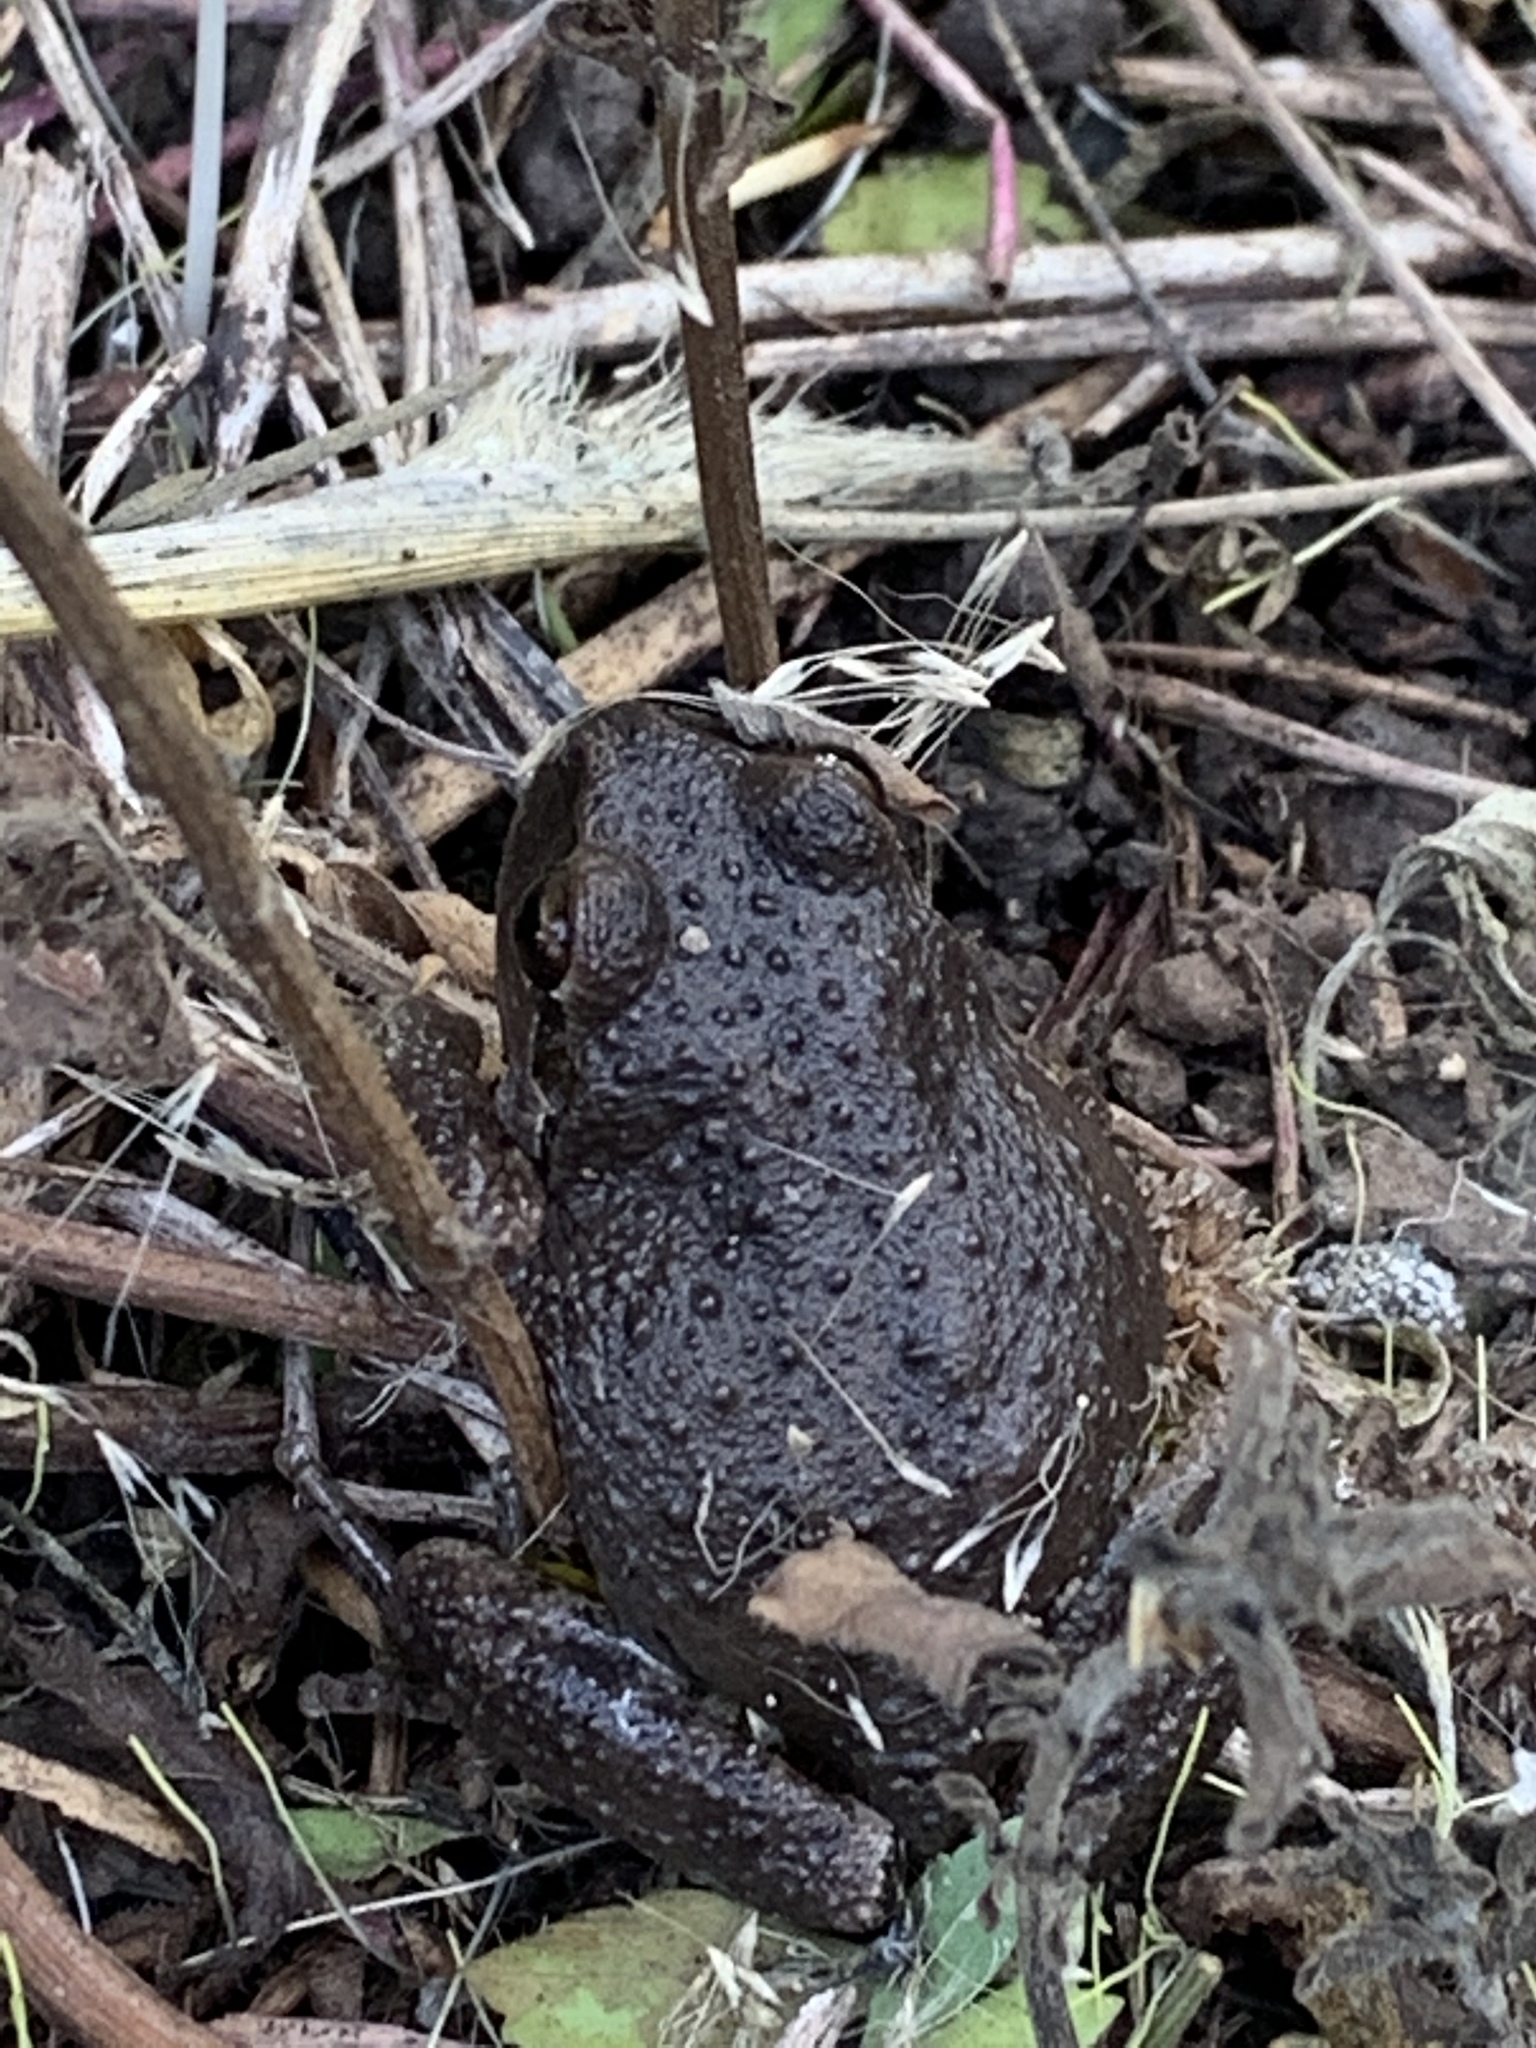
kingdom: Animalia
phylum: Chordata
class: Amphibia
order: Anura
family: Hylidae
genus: Pseudacris
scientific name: Pseudacris regilla
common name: Pacific chorus frog
